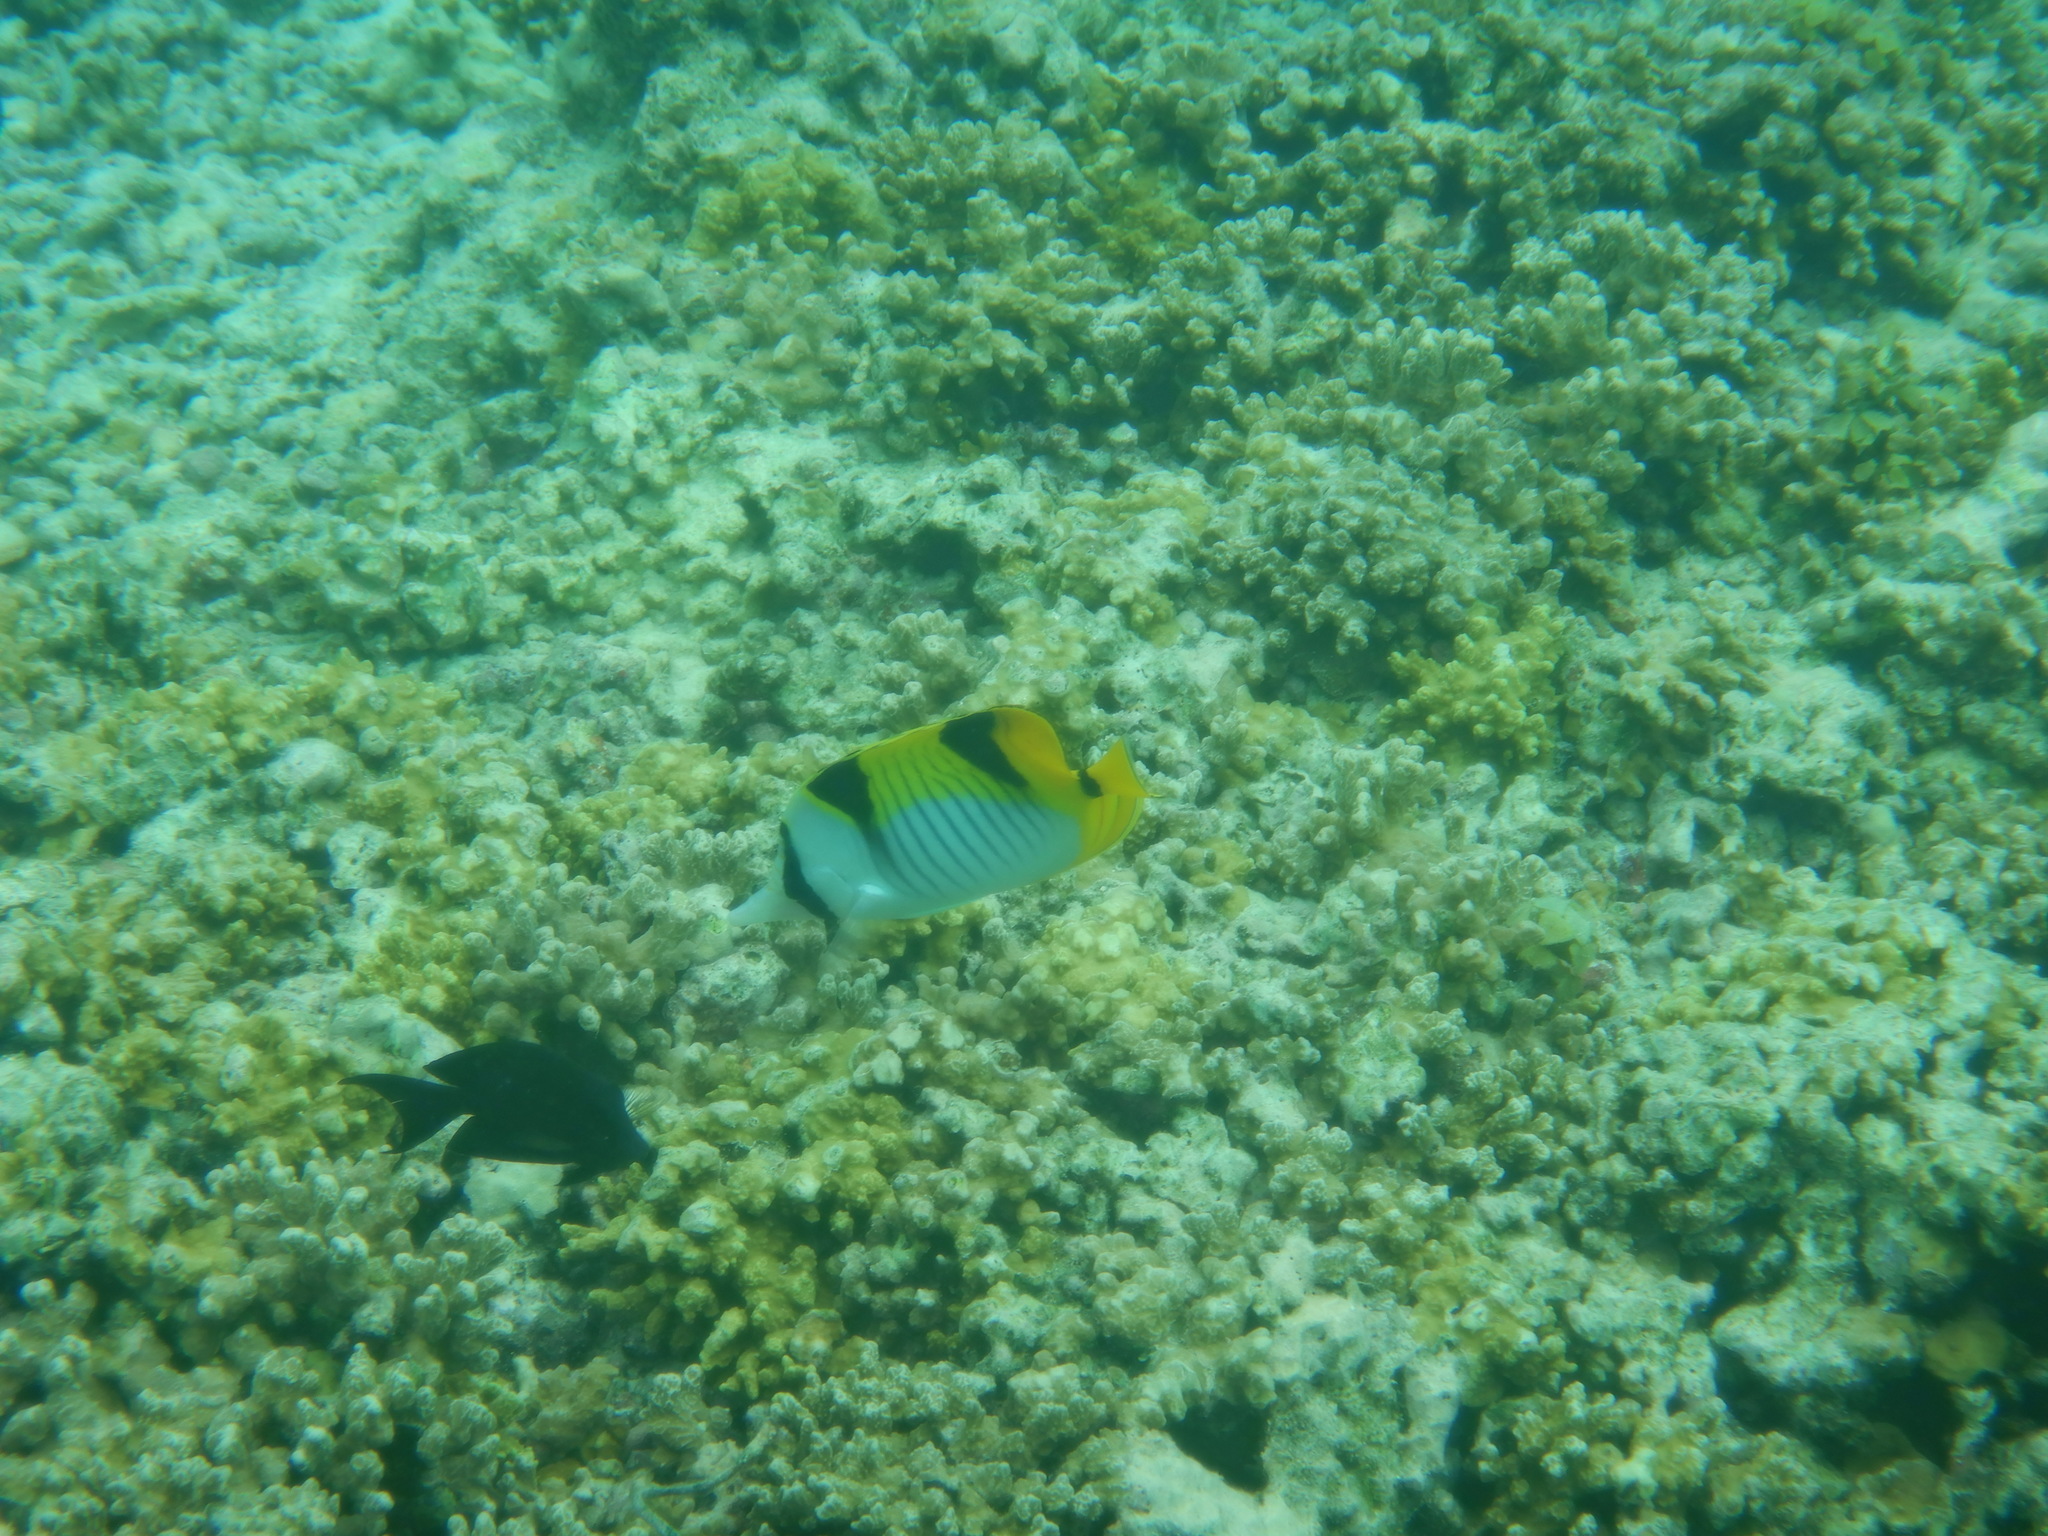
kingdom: Animalia
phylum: Chordata
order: Perciformes
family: Chaetodontidae
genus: Chaetodon
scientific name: Chaetodon falcula
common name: Blackwedged butterflyfish
